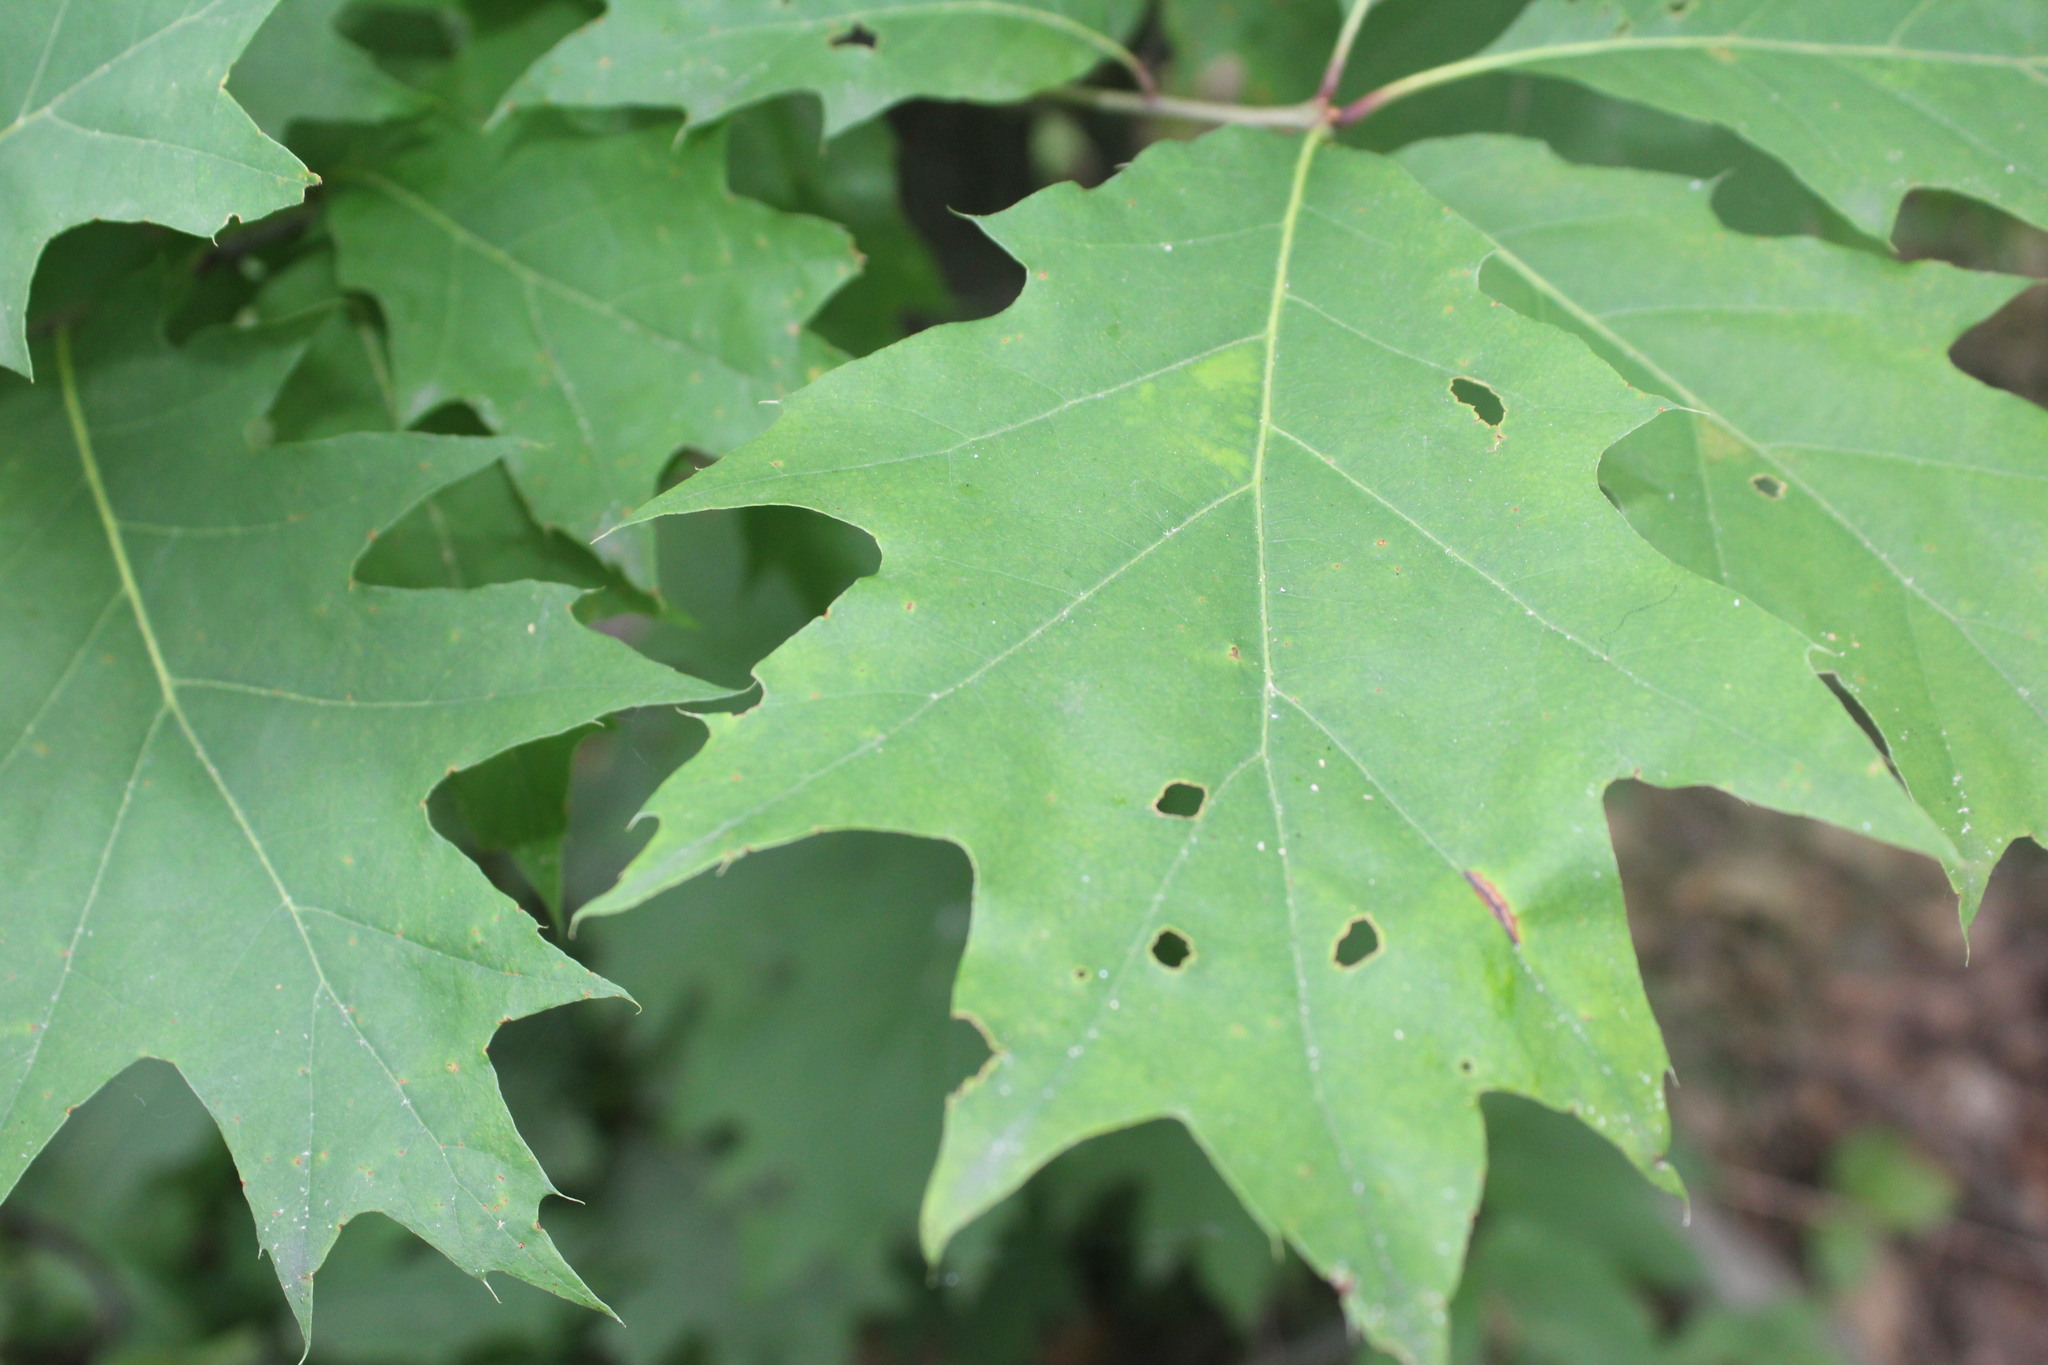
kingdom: Plantae
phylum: Tracheophyta
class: Magnoliopsida
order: Fagales
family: Fagaceae
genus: Quercus
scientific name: Quercus rubra
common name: Red oak
